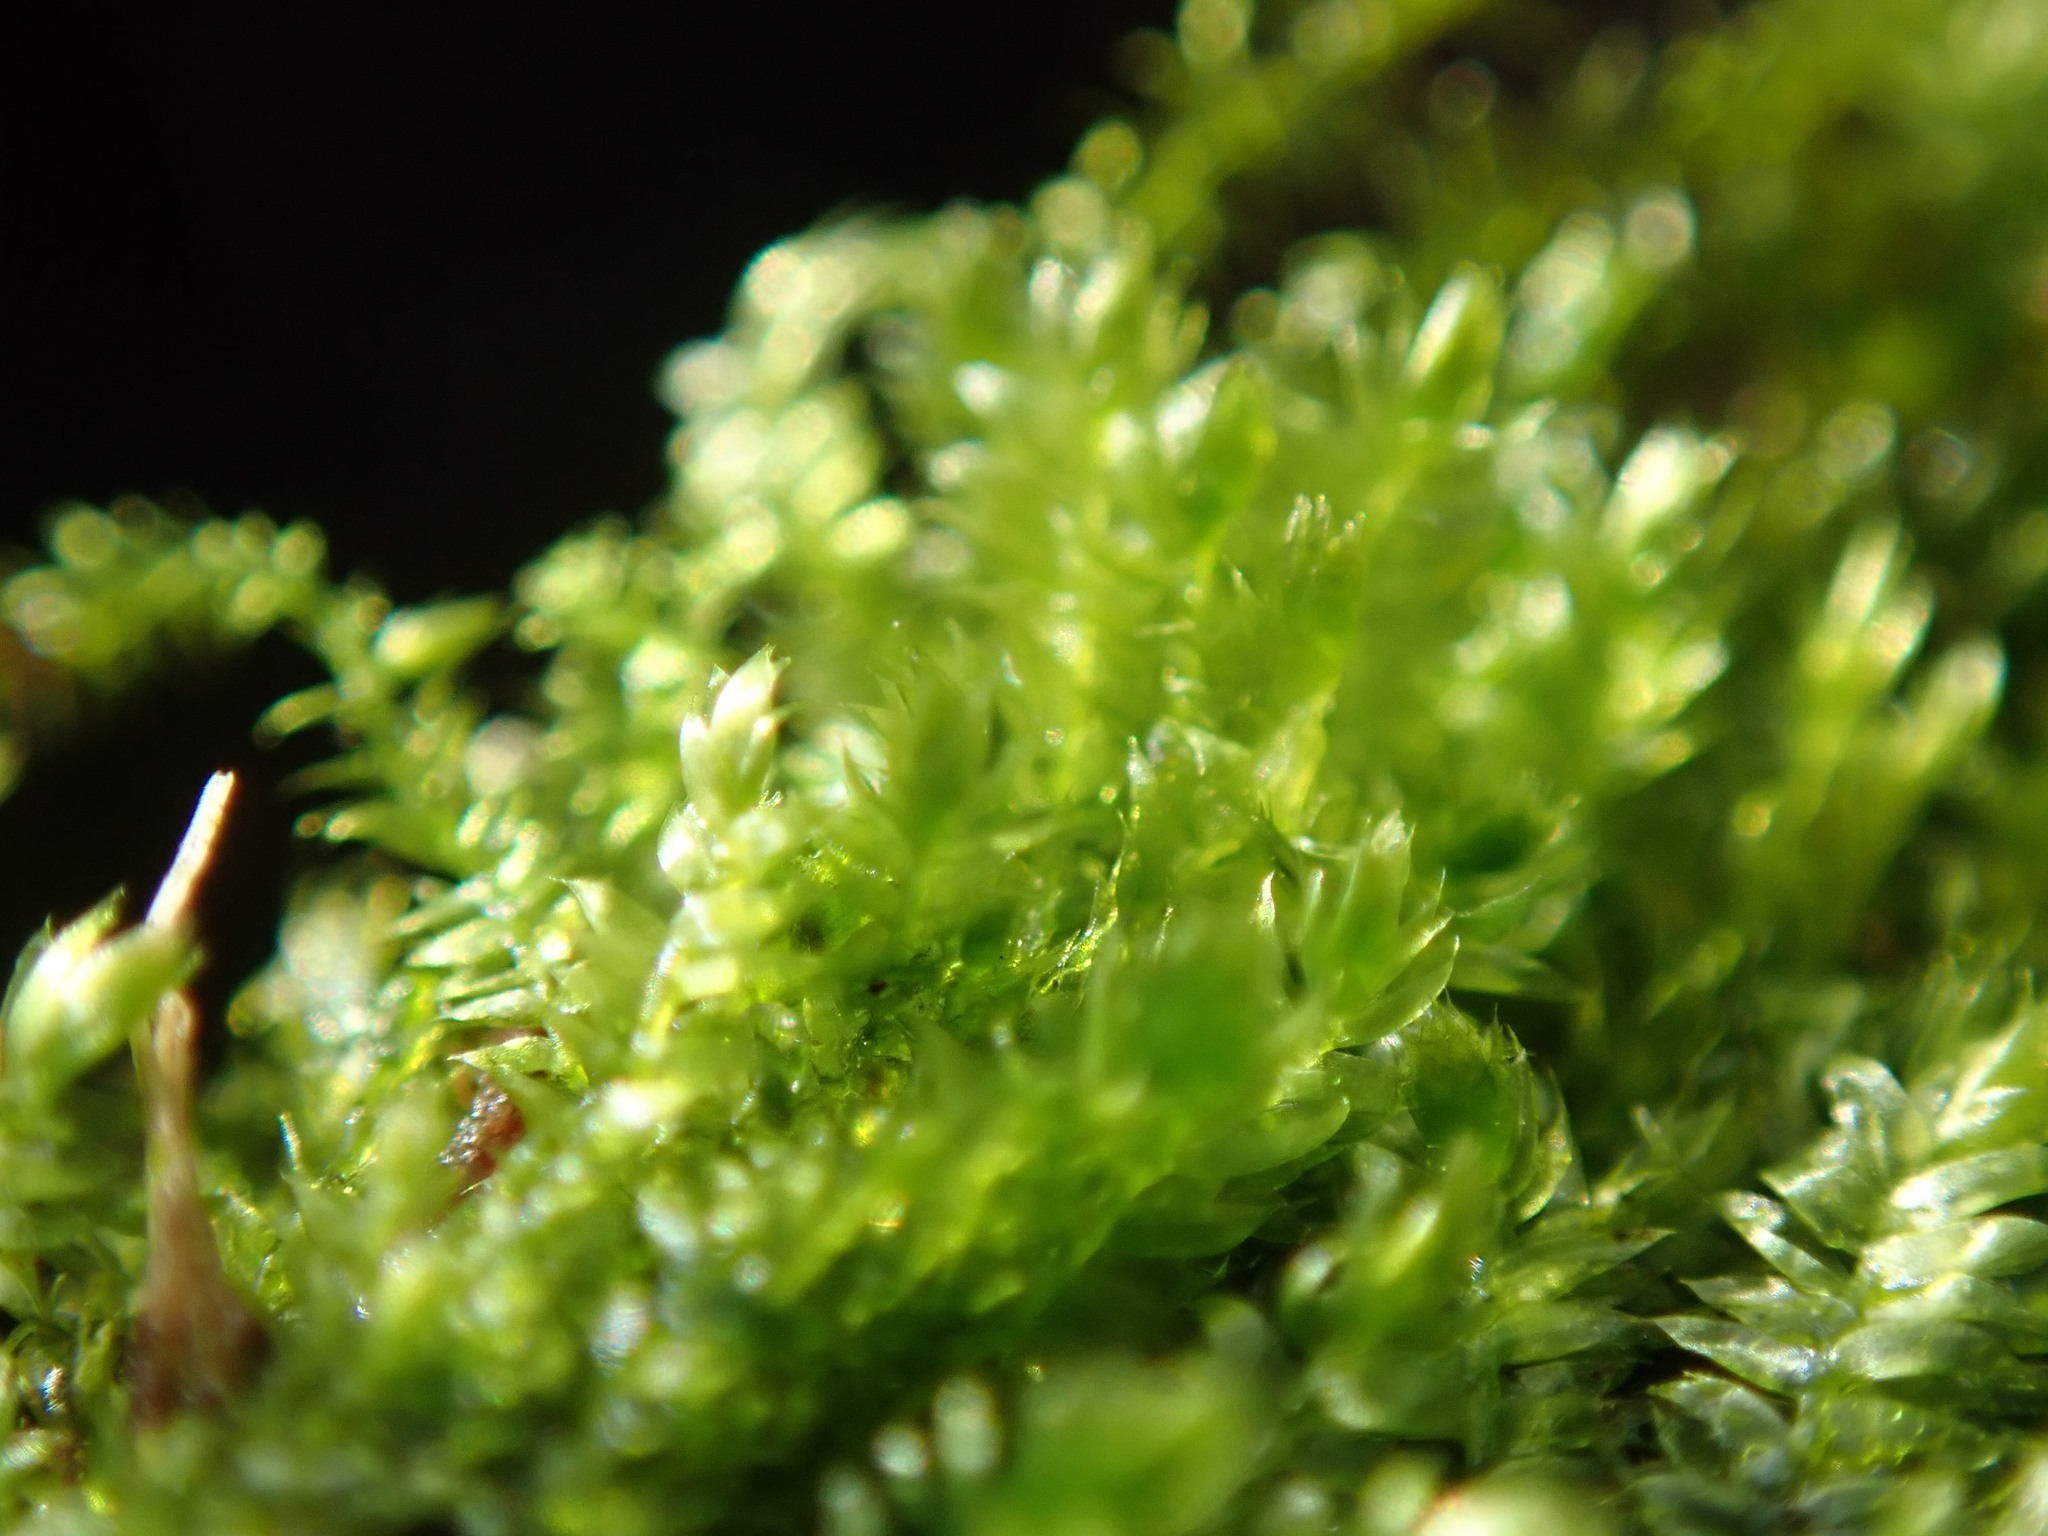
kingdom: Plantae
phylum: Bryophyta
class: Bryopsida
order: Hypnales
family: Plagiotheciaceae
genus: Pseudotaxiphyllum
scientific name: Pseudotaxiphyllum elegans
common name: Elegant silk moss
